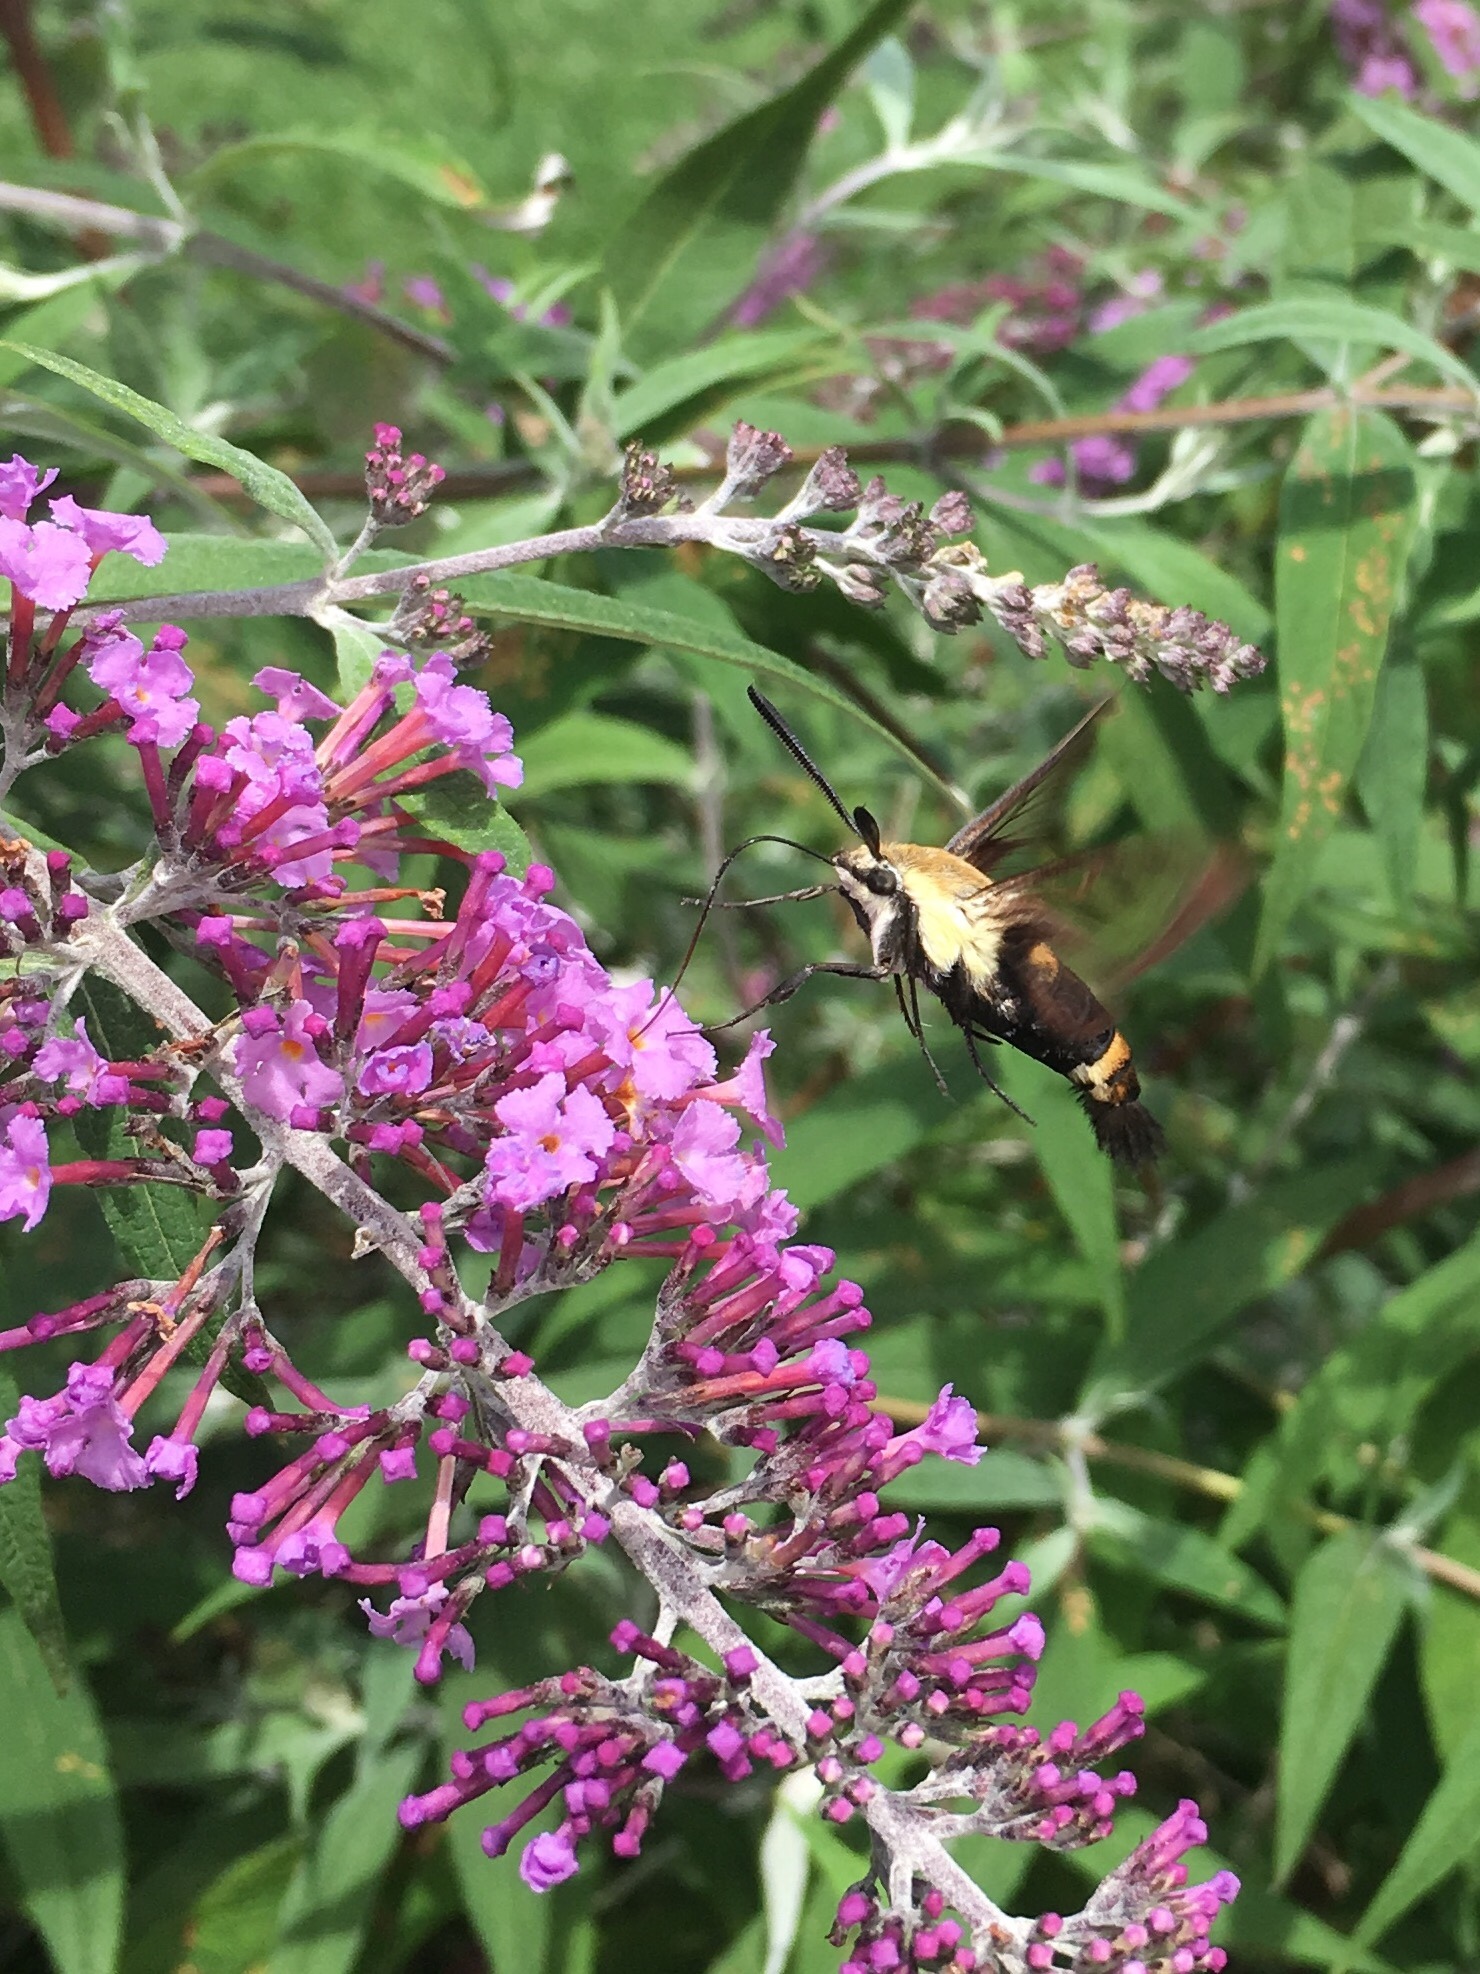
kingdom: Animalia
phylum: Arthropoda
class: Insecta
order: Lepidoptera
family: Sphingidae
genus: Hemaris
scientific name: Hemaris diffinis
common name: Bumblebee moth
